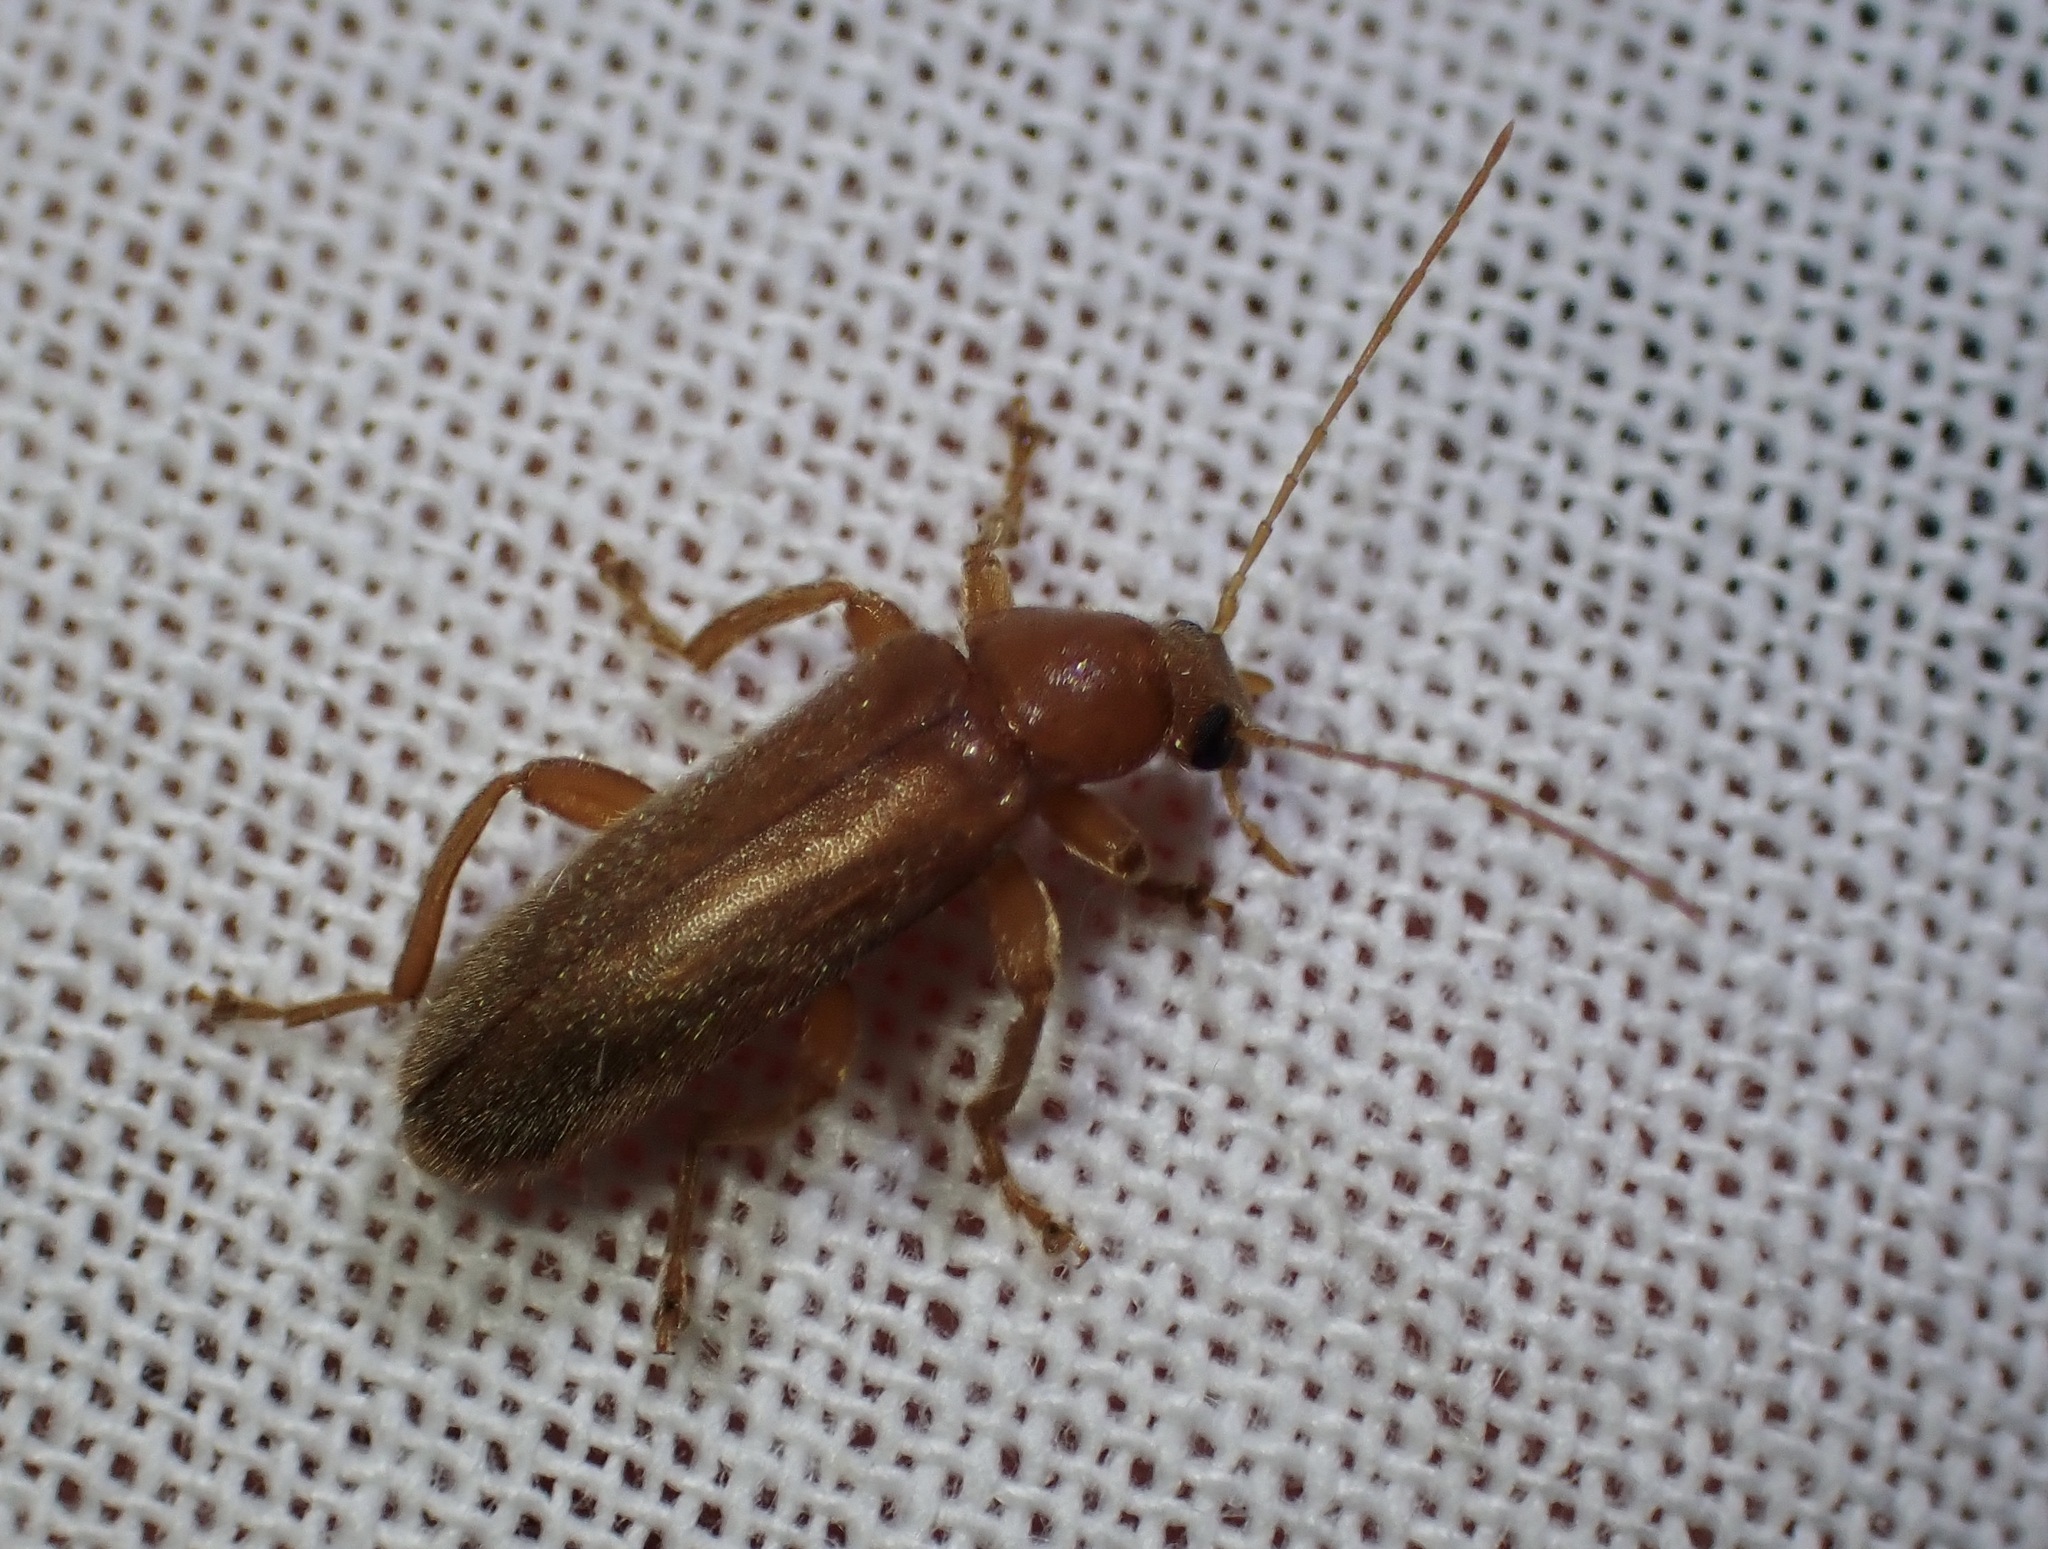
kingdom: Animalia
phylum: Arthropoda
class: Insecta
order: Coleoptera
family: Melandryidae
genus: Osphya
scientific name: Osphya
